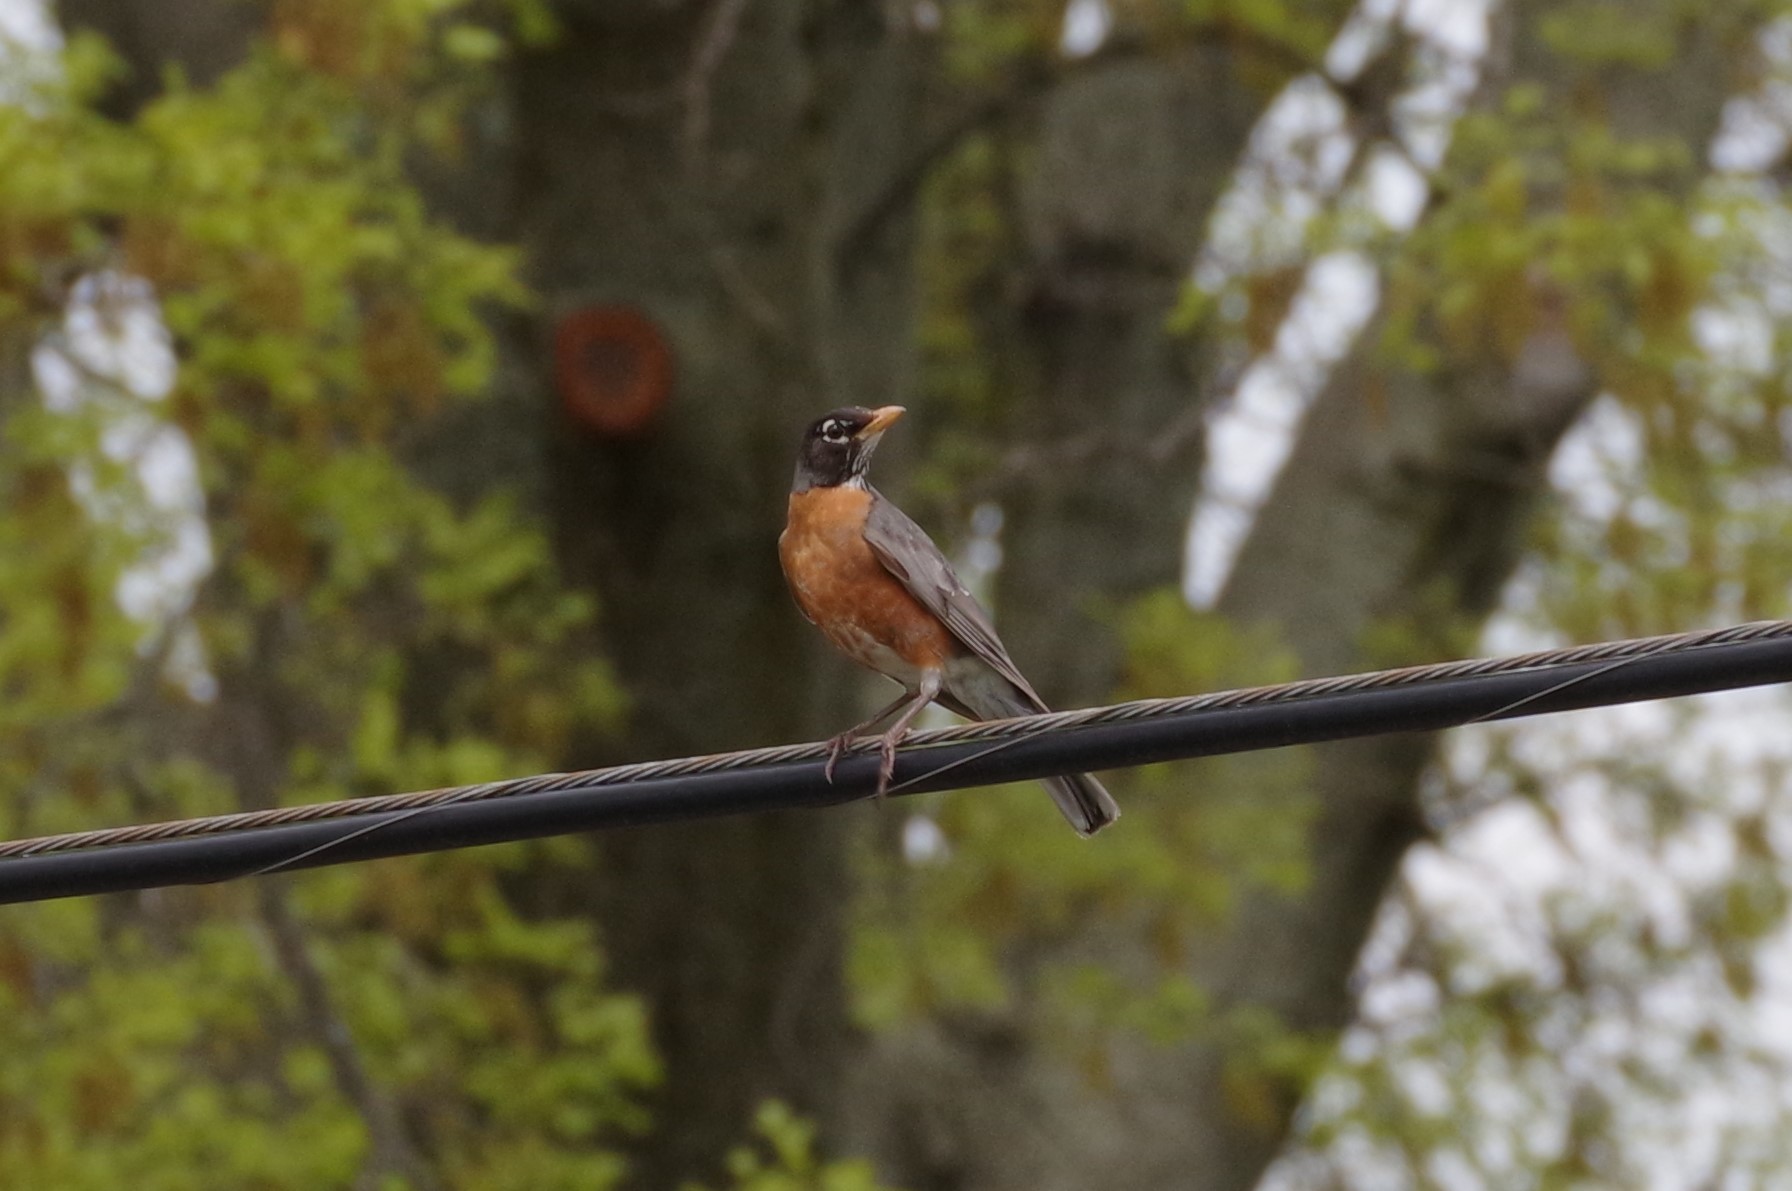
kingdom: Animalia
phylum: Chordata
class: Aves
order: Passeriformes
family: Turdidae
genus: Turdus
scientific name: Turdus migratorius
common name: American robin
